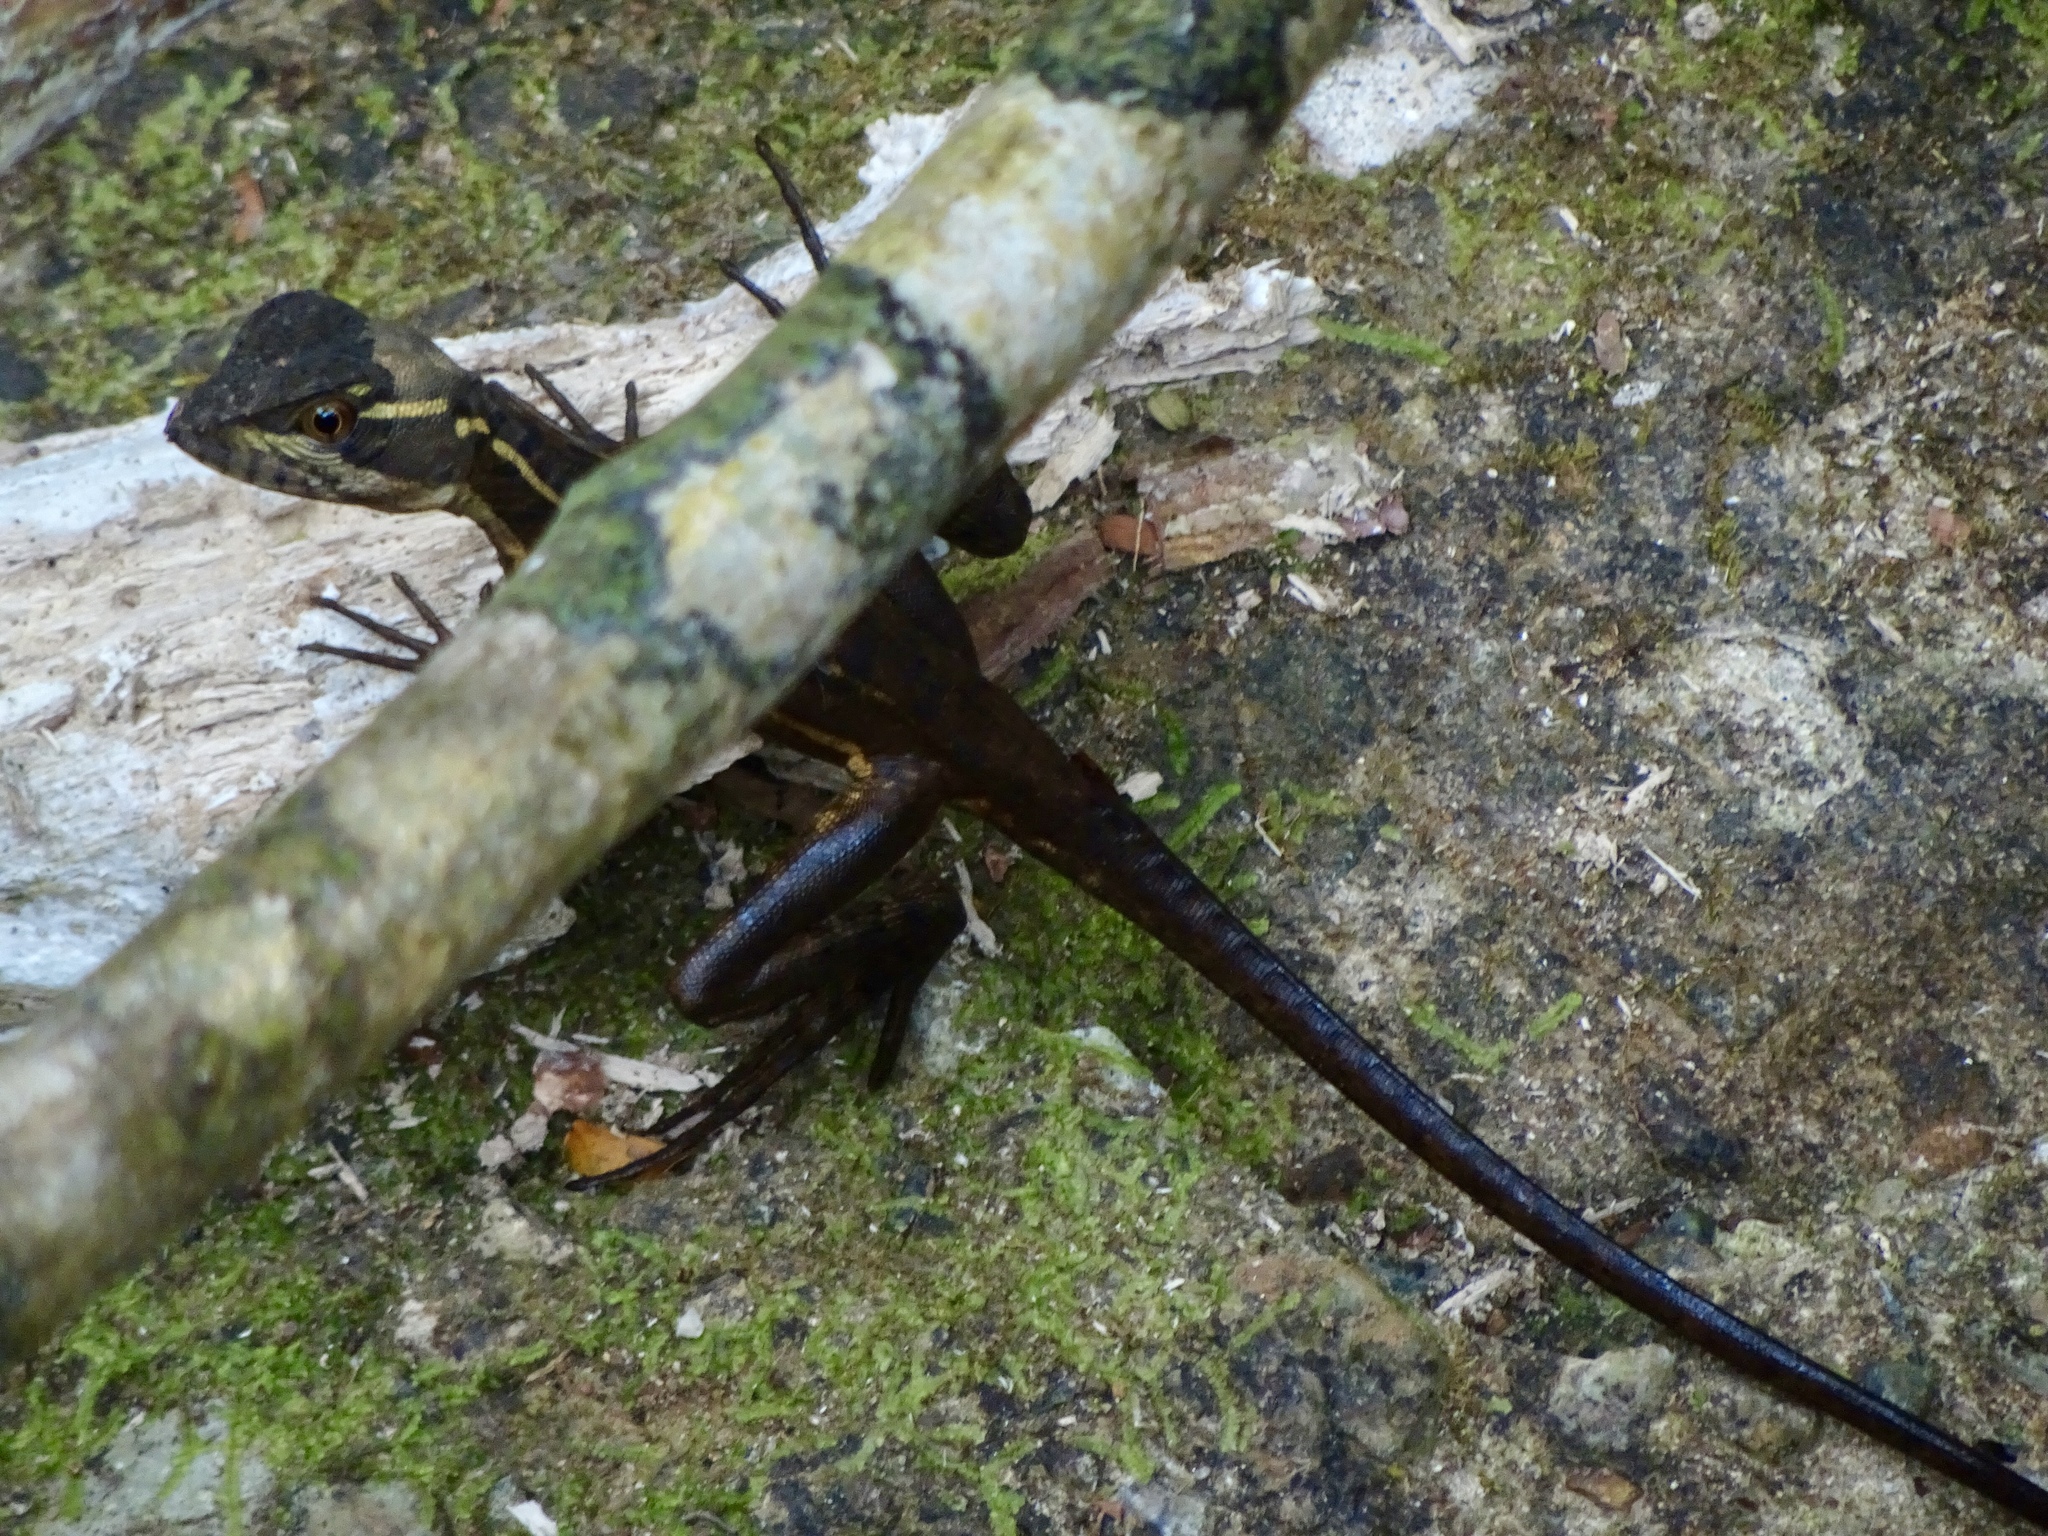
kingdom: Animalia
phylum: Chordata
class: Squamata
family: Corytophanidae
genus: Basiliscus
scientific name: Basiliscus basiliscus
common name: Common basilisk
